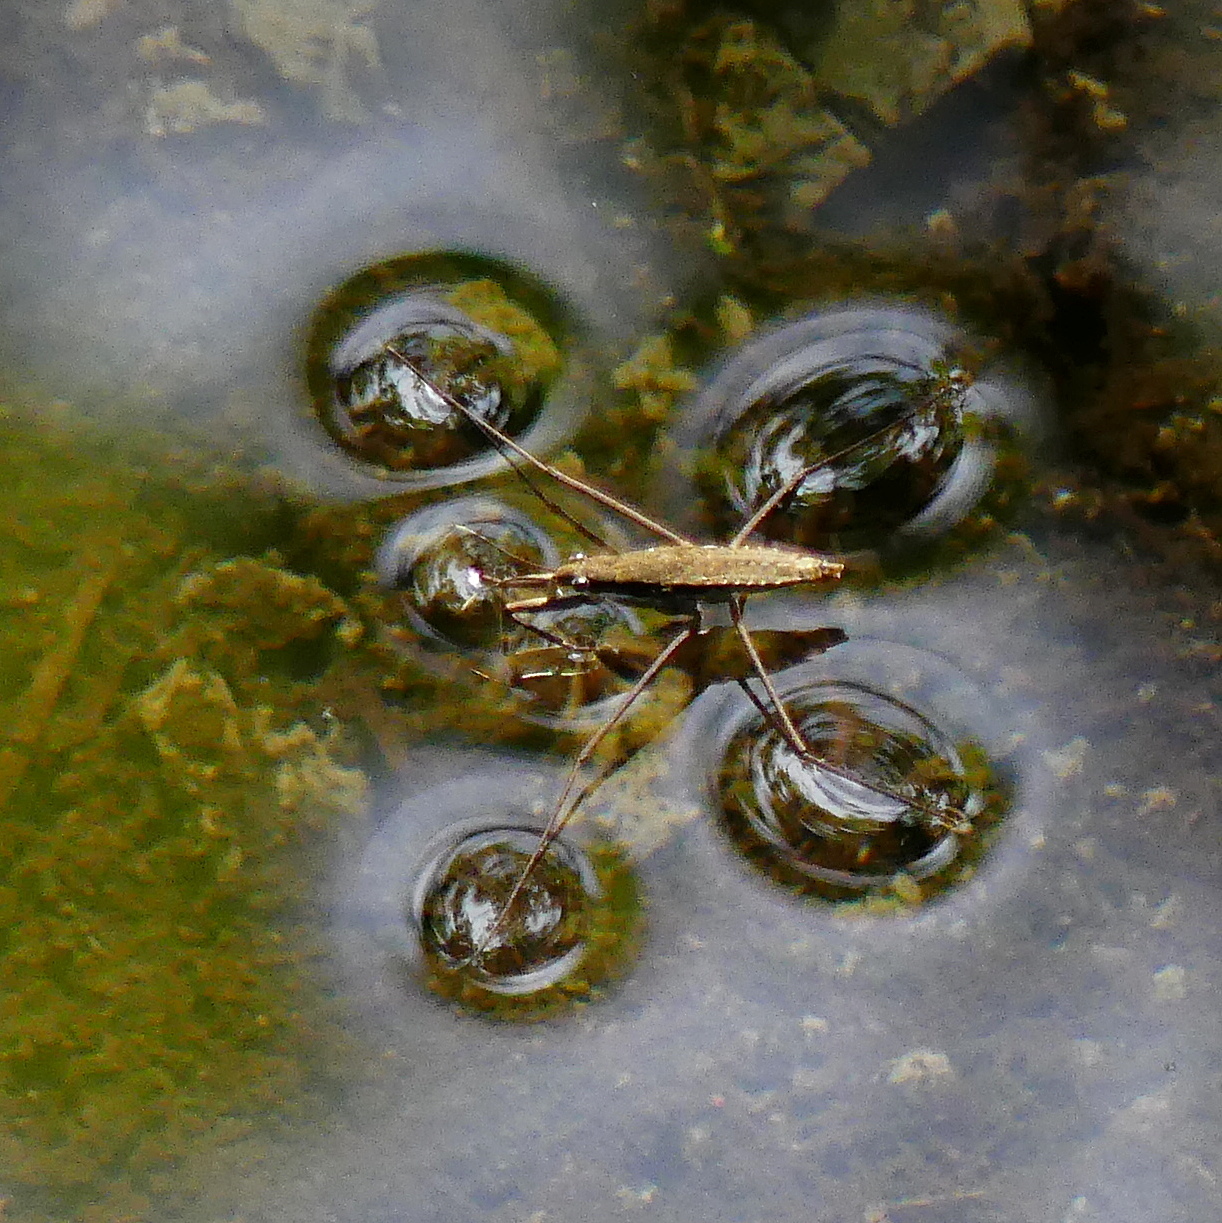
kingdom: Animalia
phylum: Arthropoda
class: Insecta
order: Hemiptera
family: Gerridae
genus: Aquarius
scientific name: Aquarius remigis
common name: Common water strider
